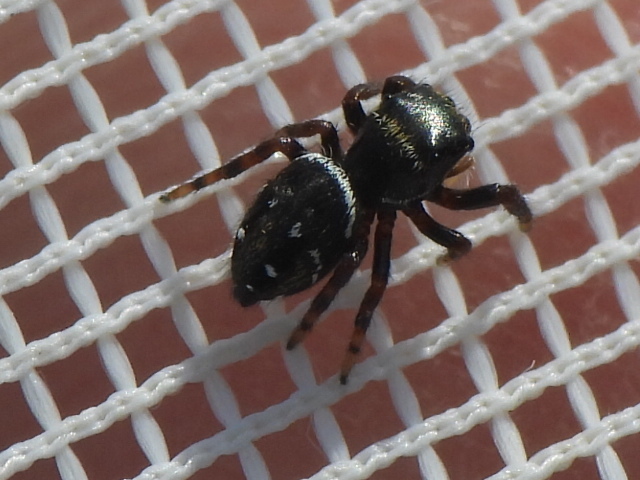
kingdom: Animalia
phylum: Arthropoda
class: Arachnida
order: Araneae
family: Salticidae
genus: Phidippus
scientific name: Phidippus clarus
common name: Brilliant jumping spider
